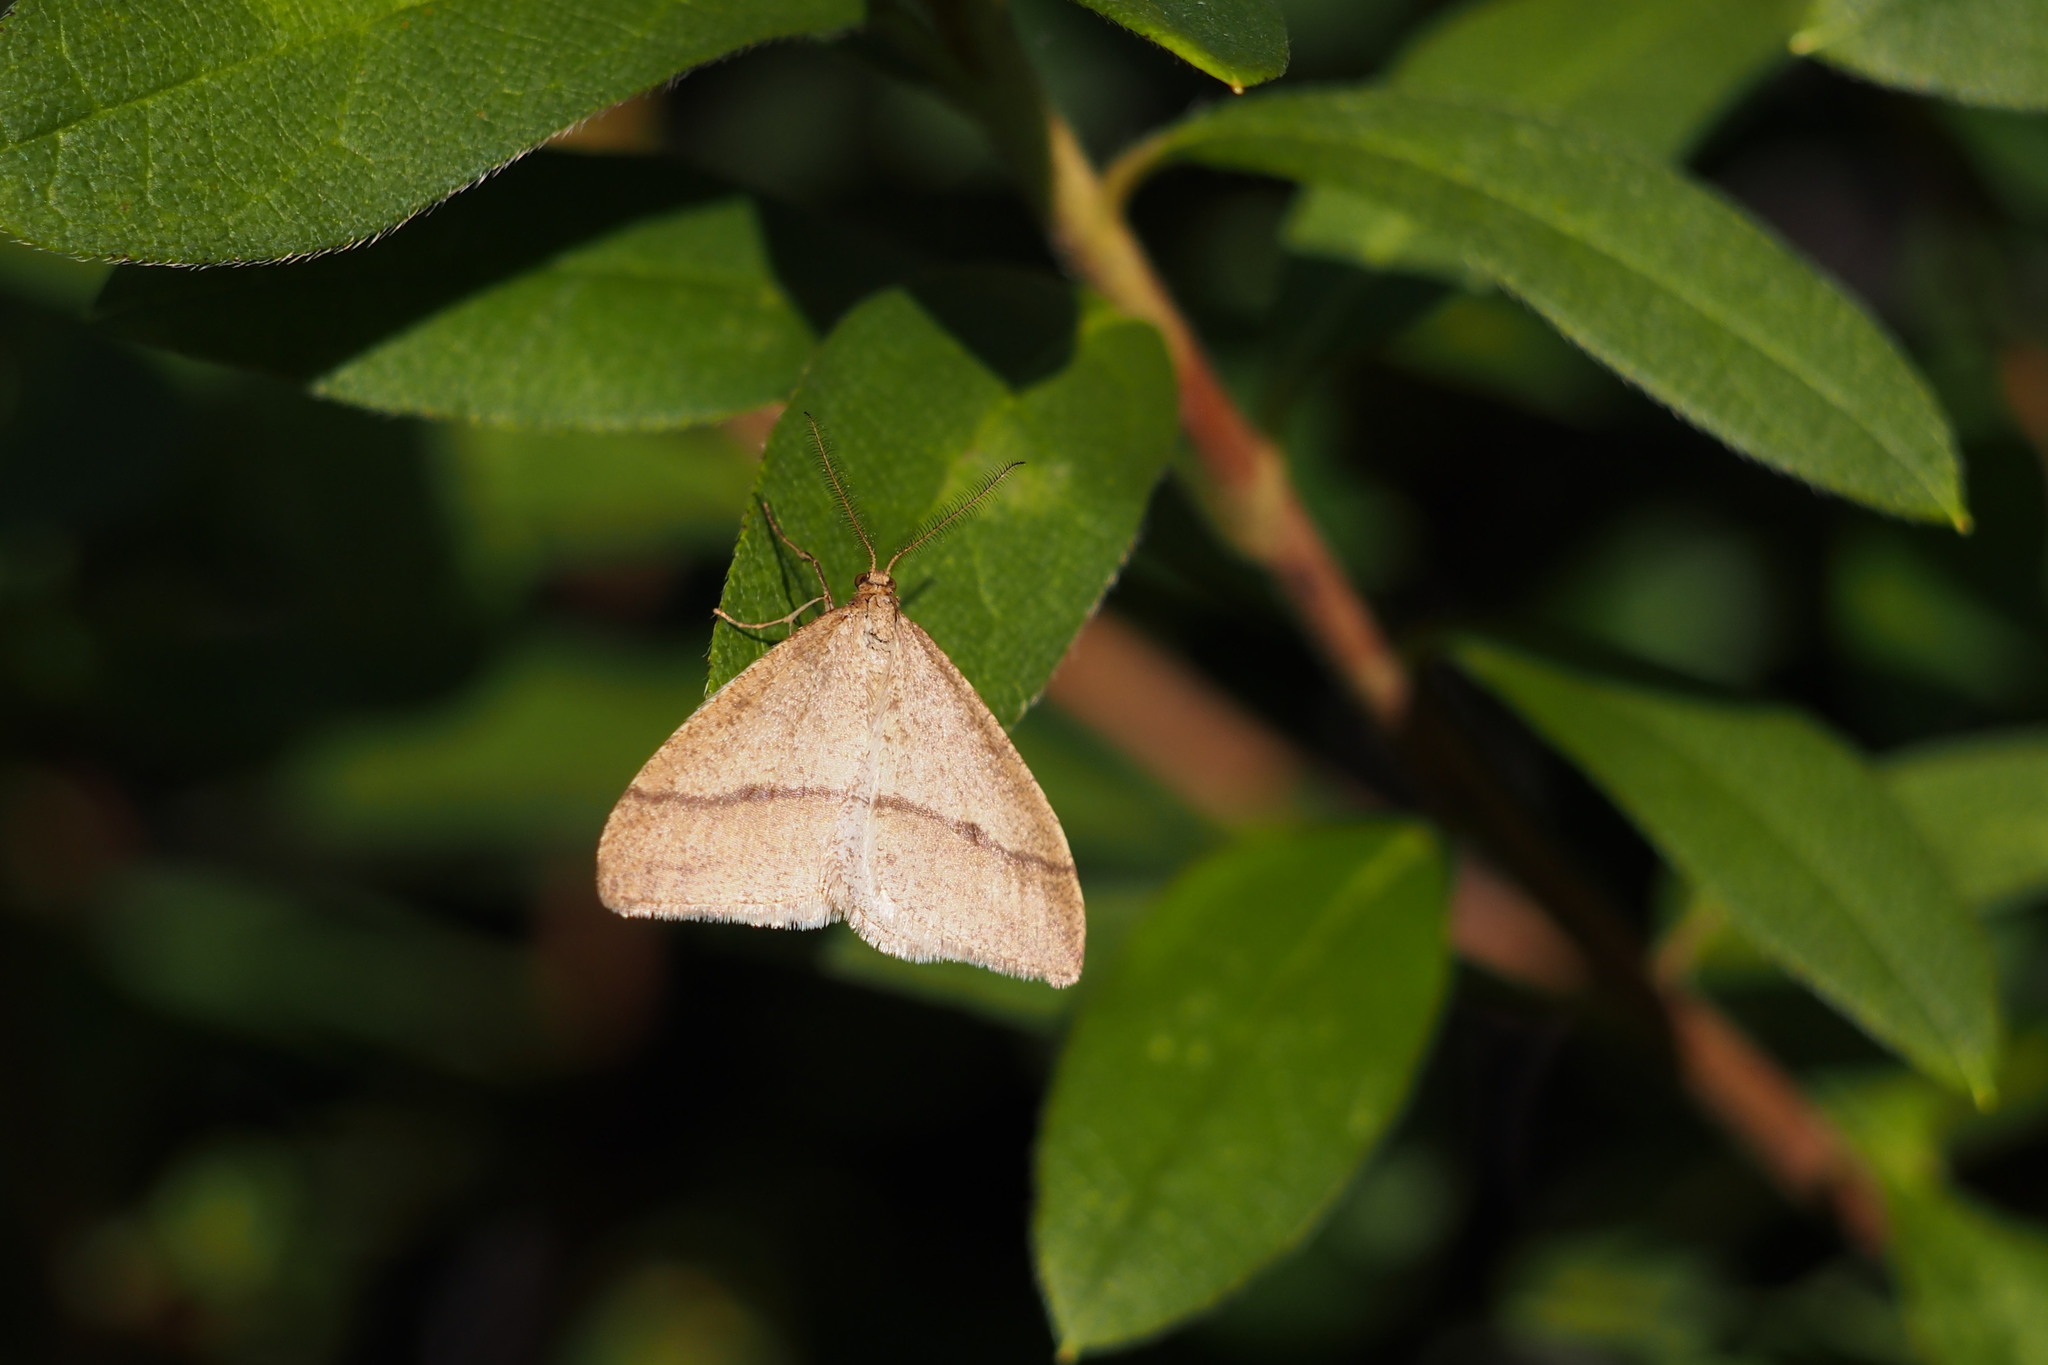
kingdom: Animalia
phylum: Arthropoda
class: Insecta
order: Lepidoptera
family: Geometridae
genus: Pachyerannis
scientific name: Pachyerannis obliquaria
